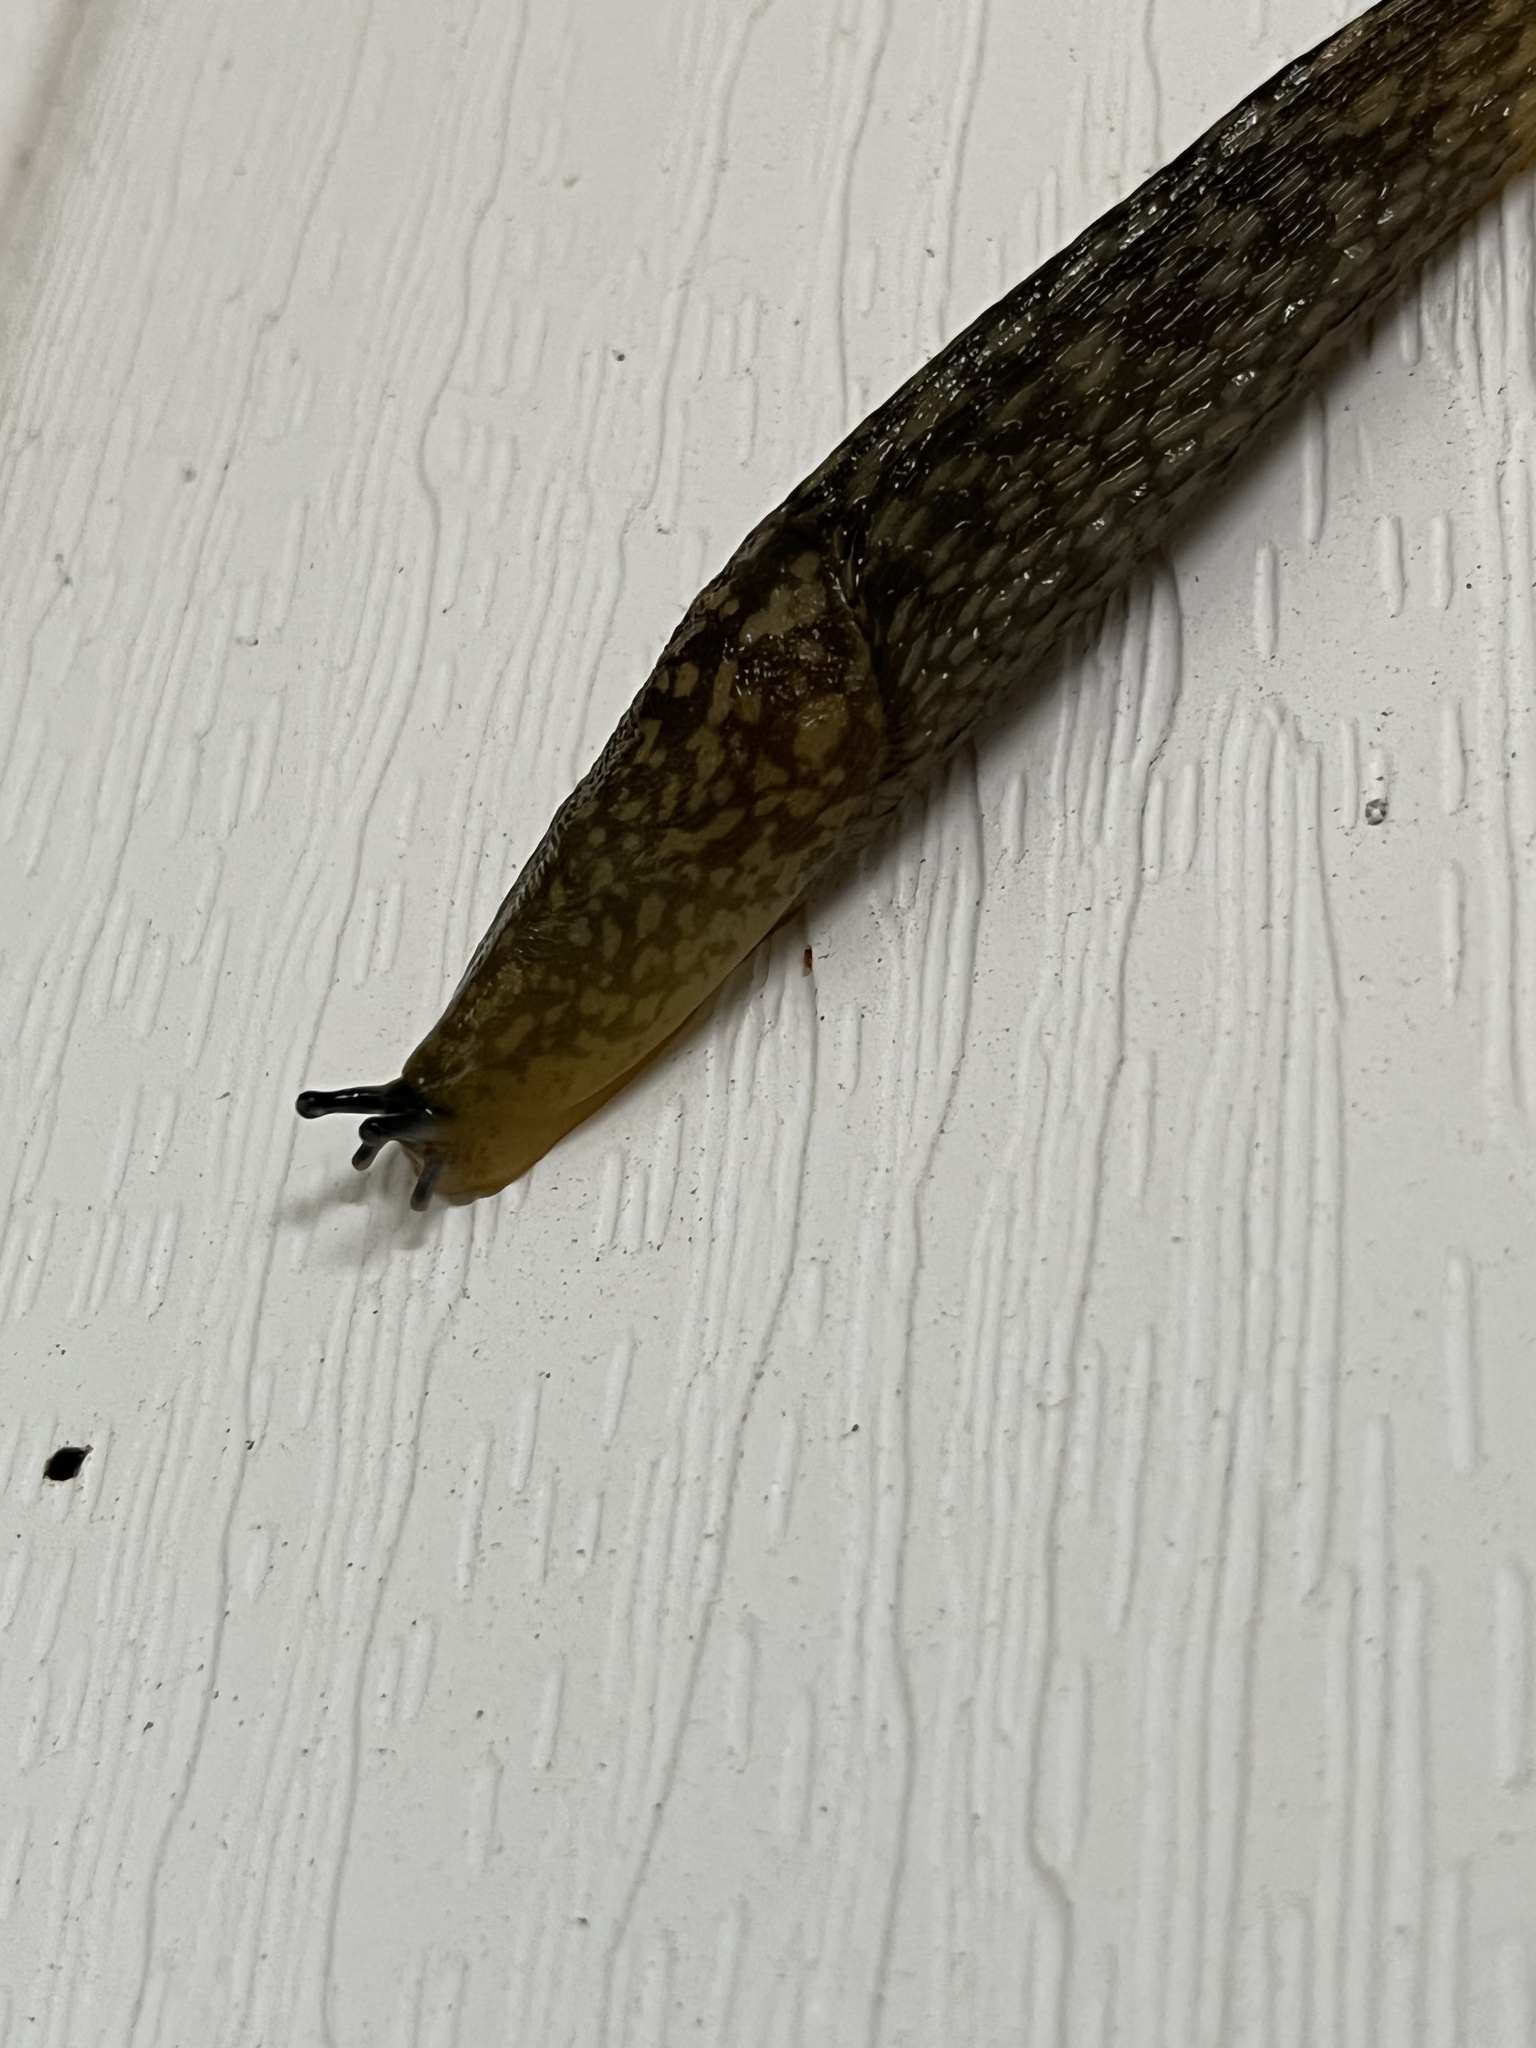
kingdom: Animalia
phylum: Mollusca
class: Gastropoda
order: Stylommatophora
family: Limacidae
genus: Limacus
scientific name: Limacus flavus
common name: Yellow gardenslug
